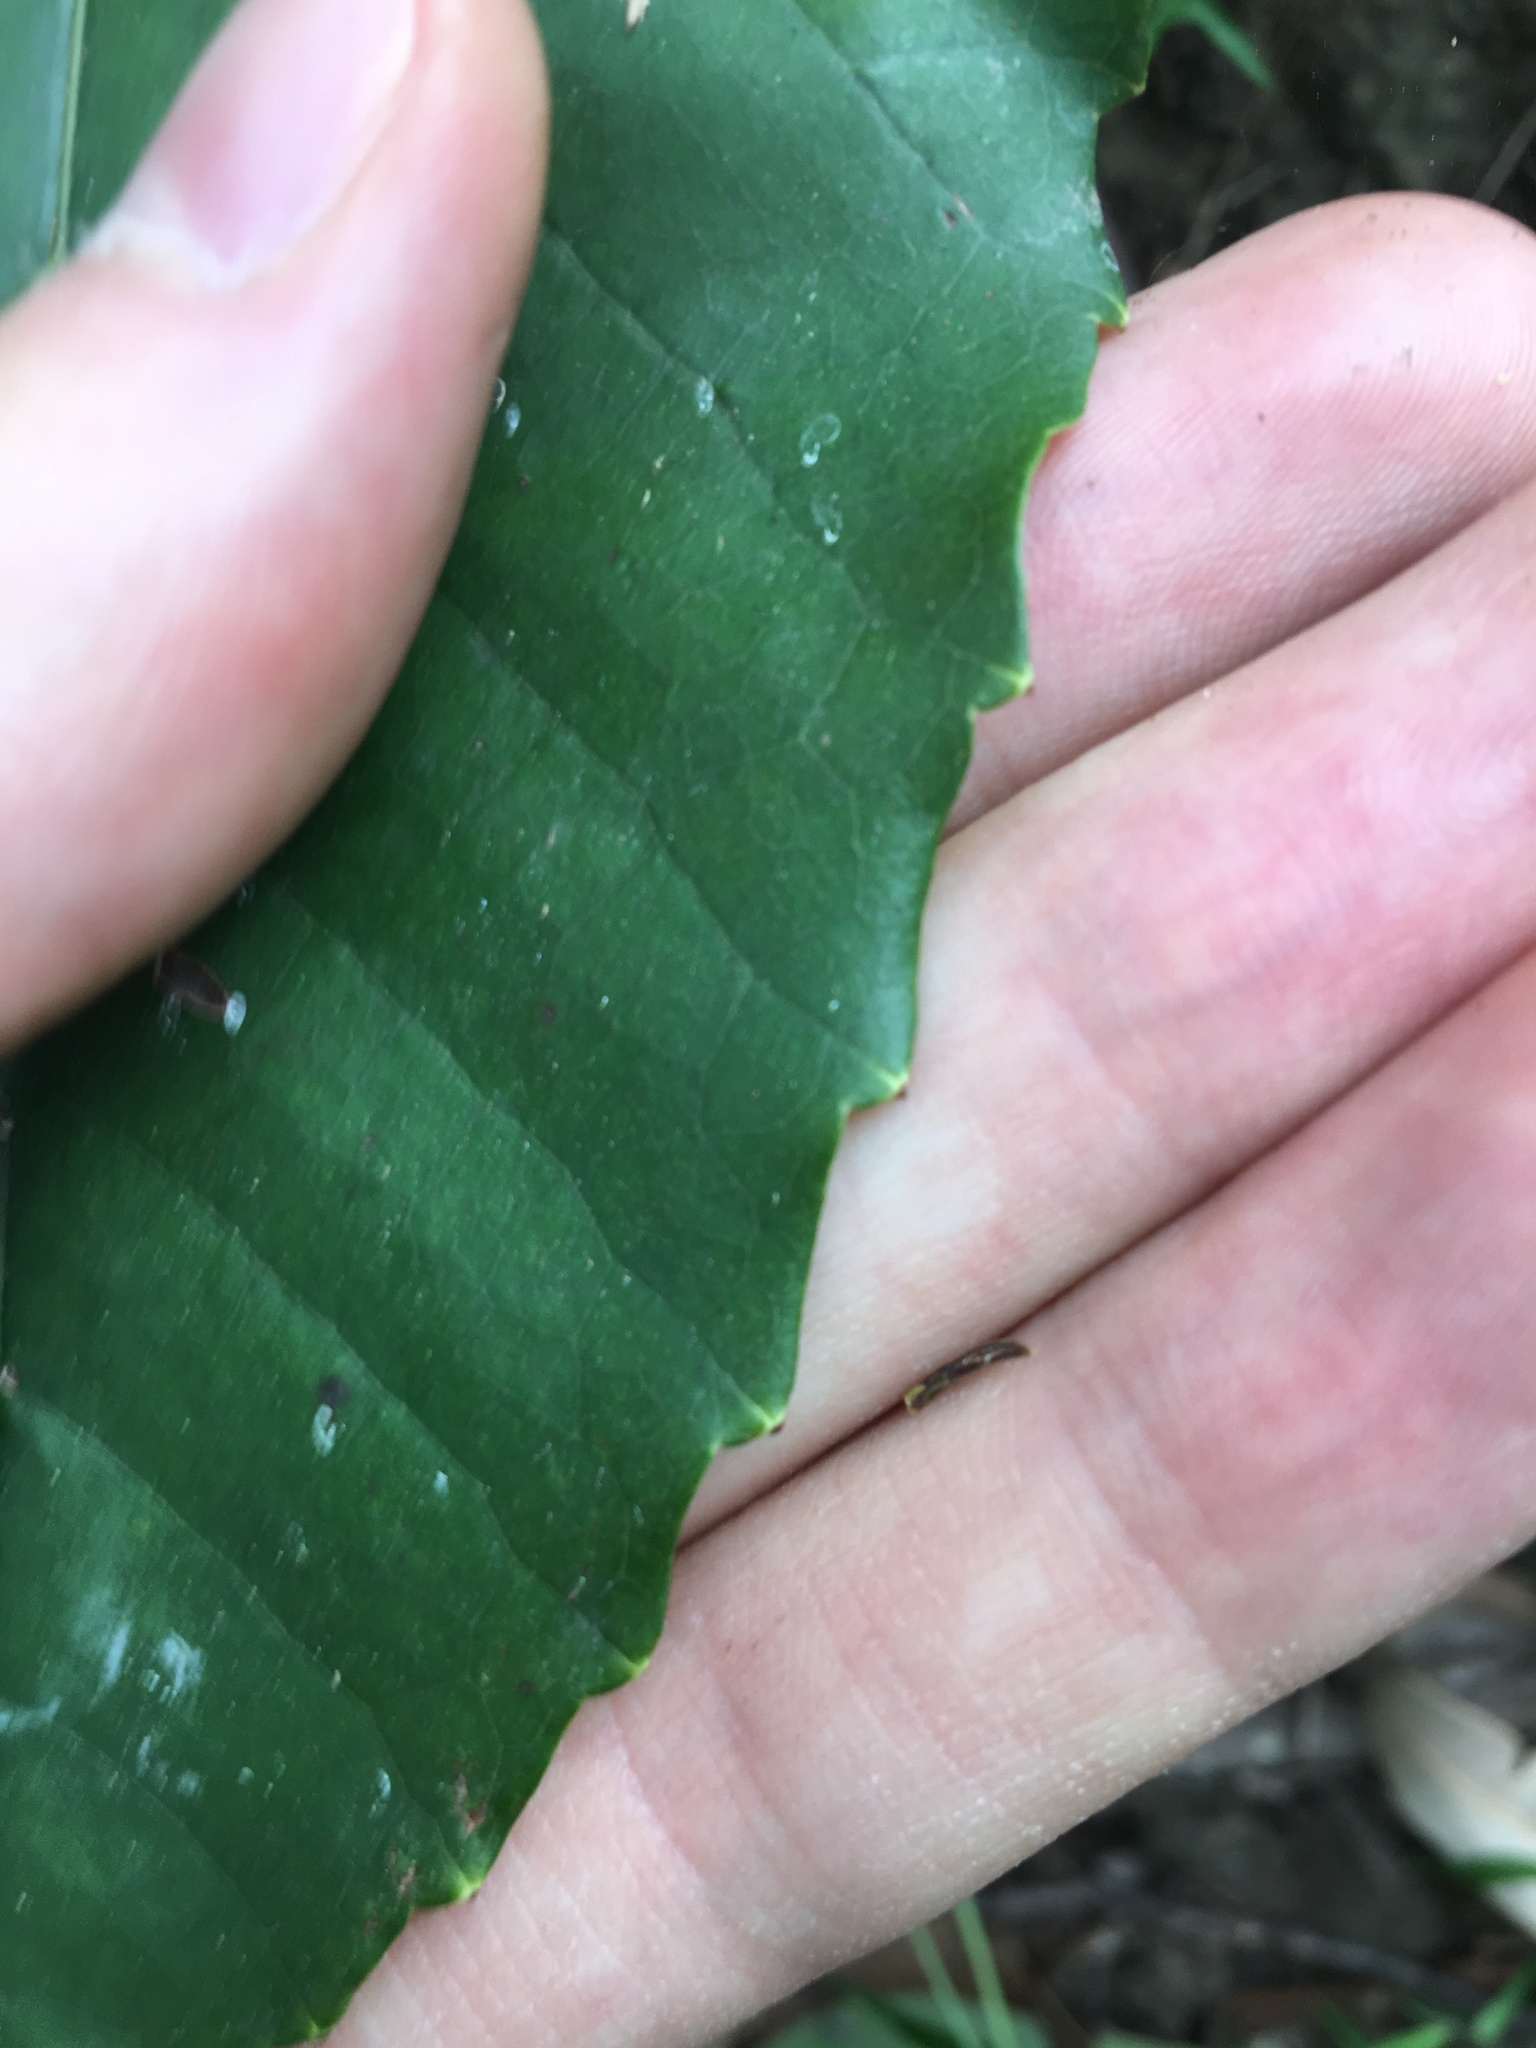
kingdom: Plantae
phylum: Tracheophyta
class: Magnoliopsida
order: Vitales
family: Vitaceae
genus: Cissus
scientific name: Cissus antarctica
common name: Kangaroo vine
